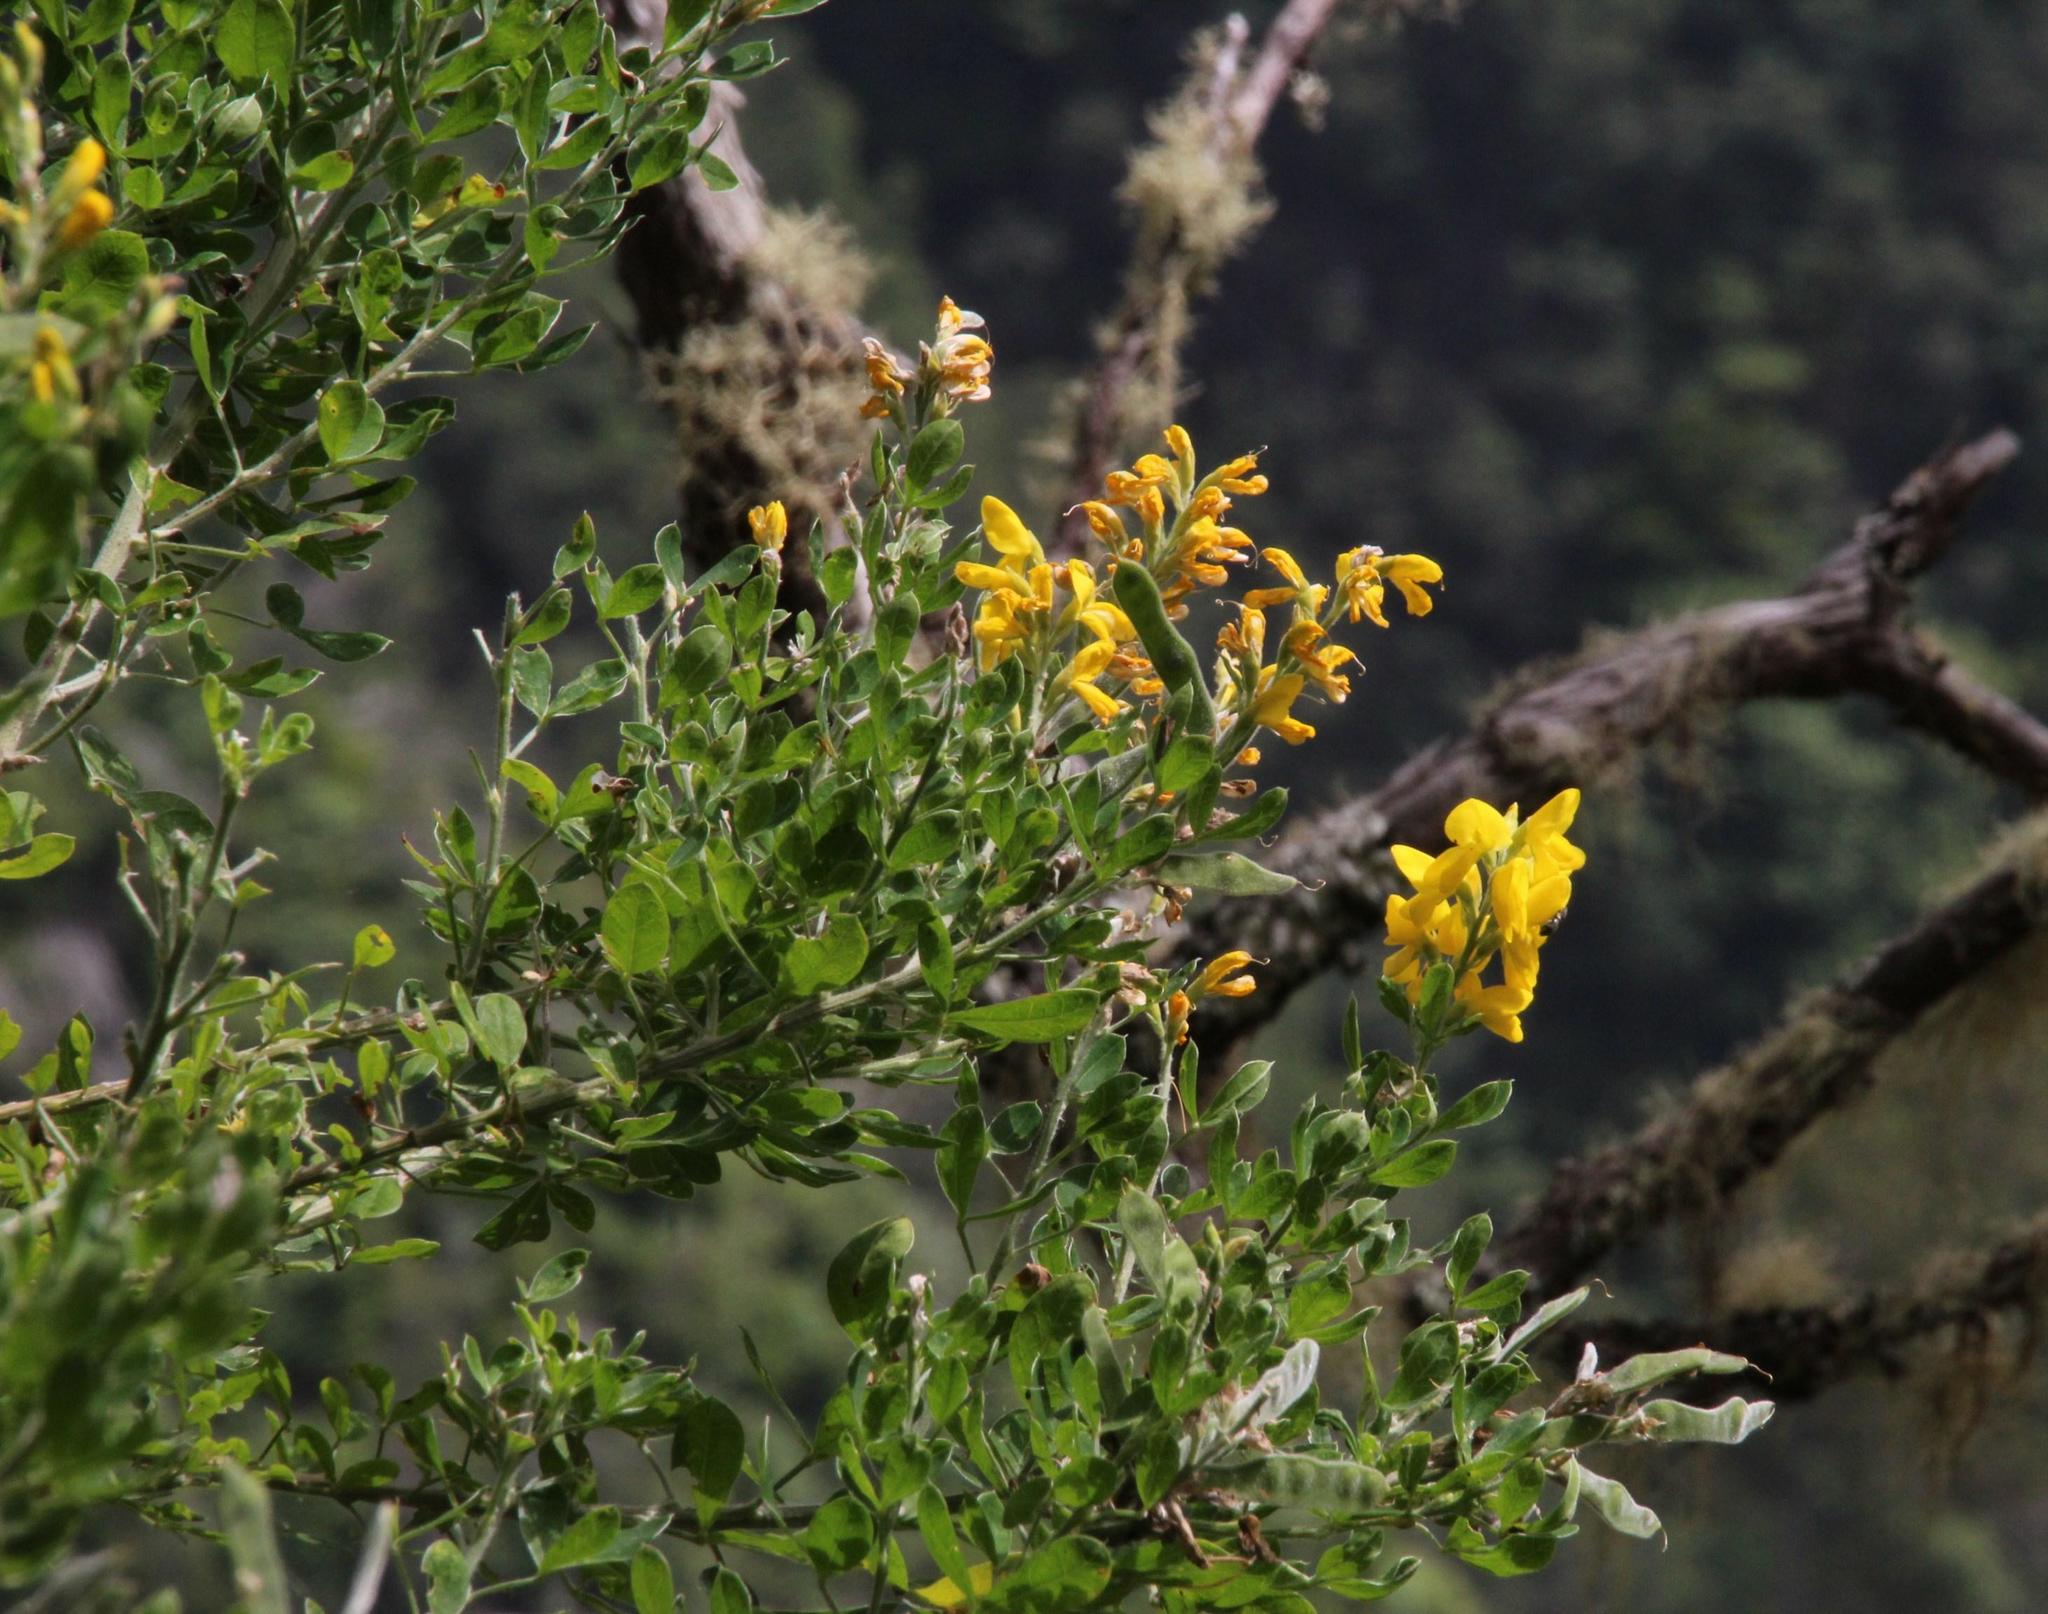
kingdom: Plantae
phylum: Tracheophyta
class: Magnoliopsida
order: Fabales
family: Fabaceae
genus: Genista
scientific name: Genista maderensis
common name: Madeira dyer's greenweed
